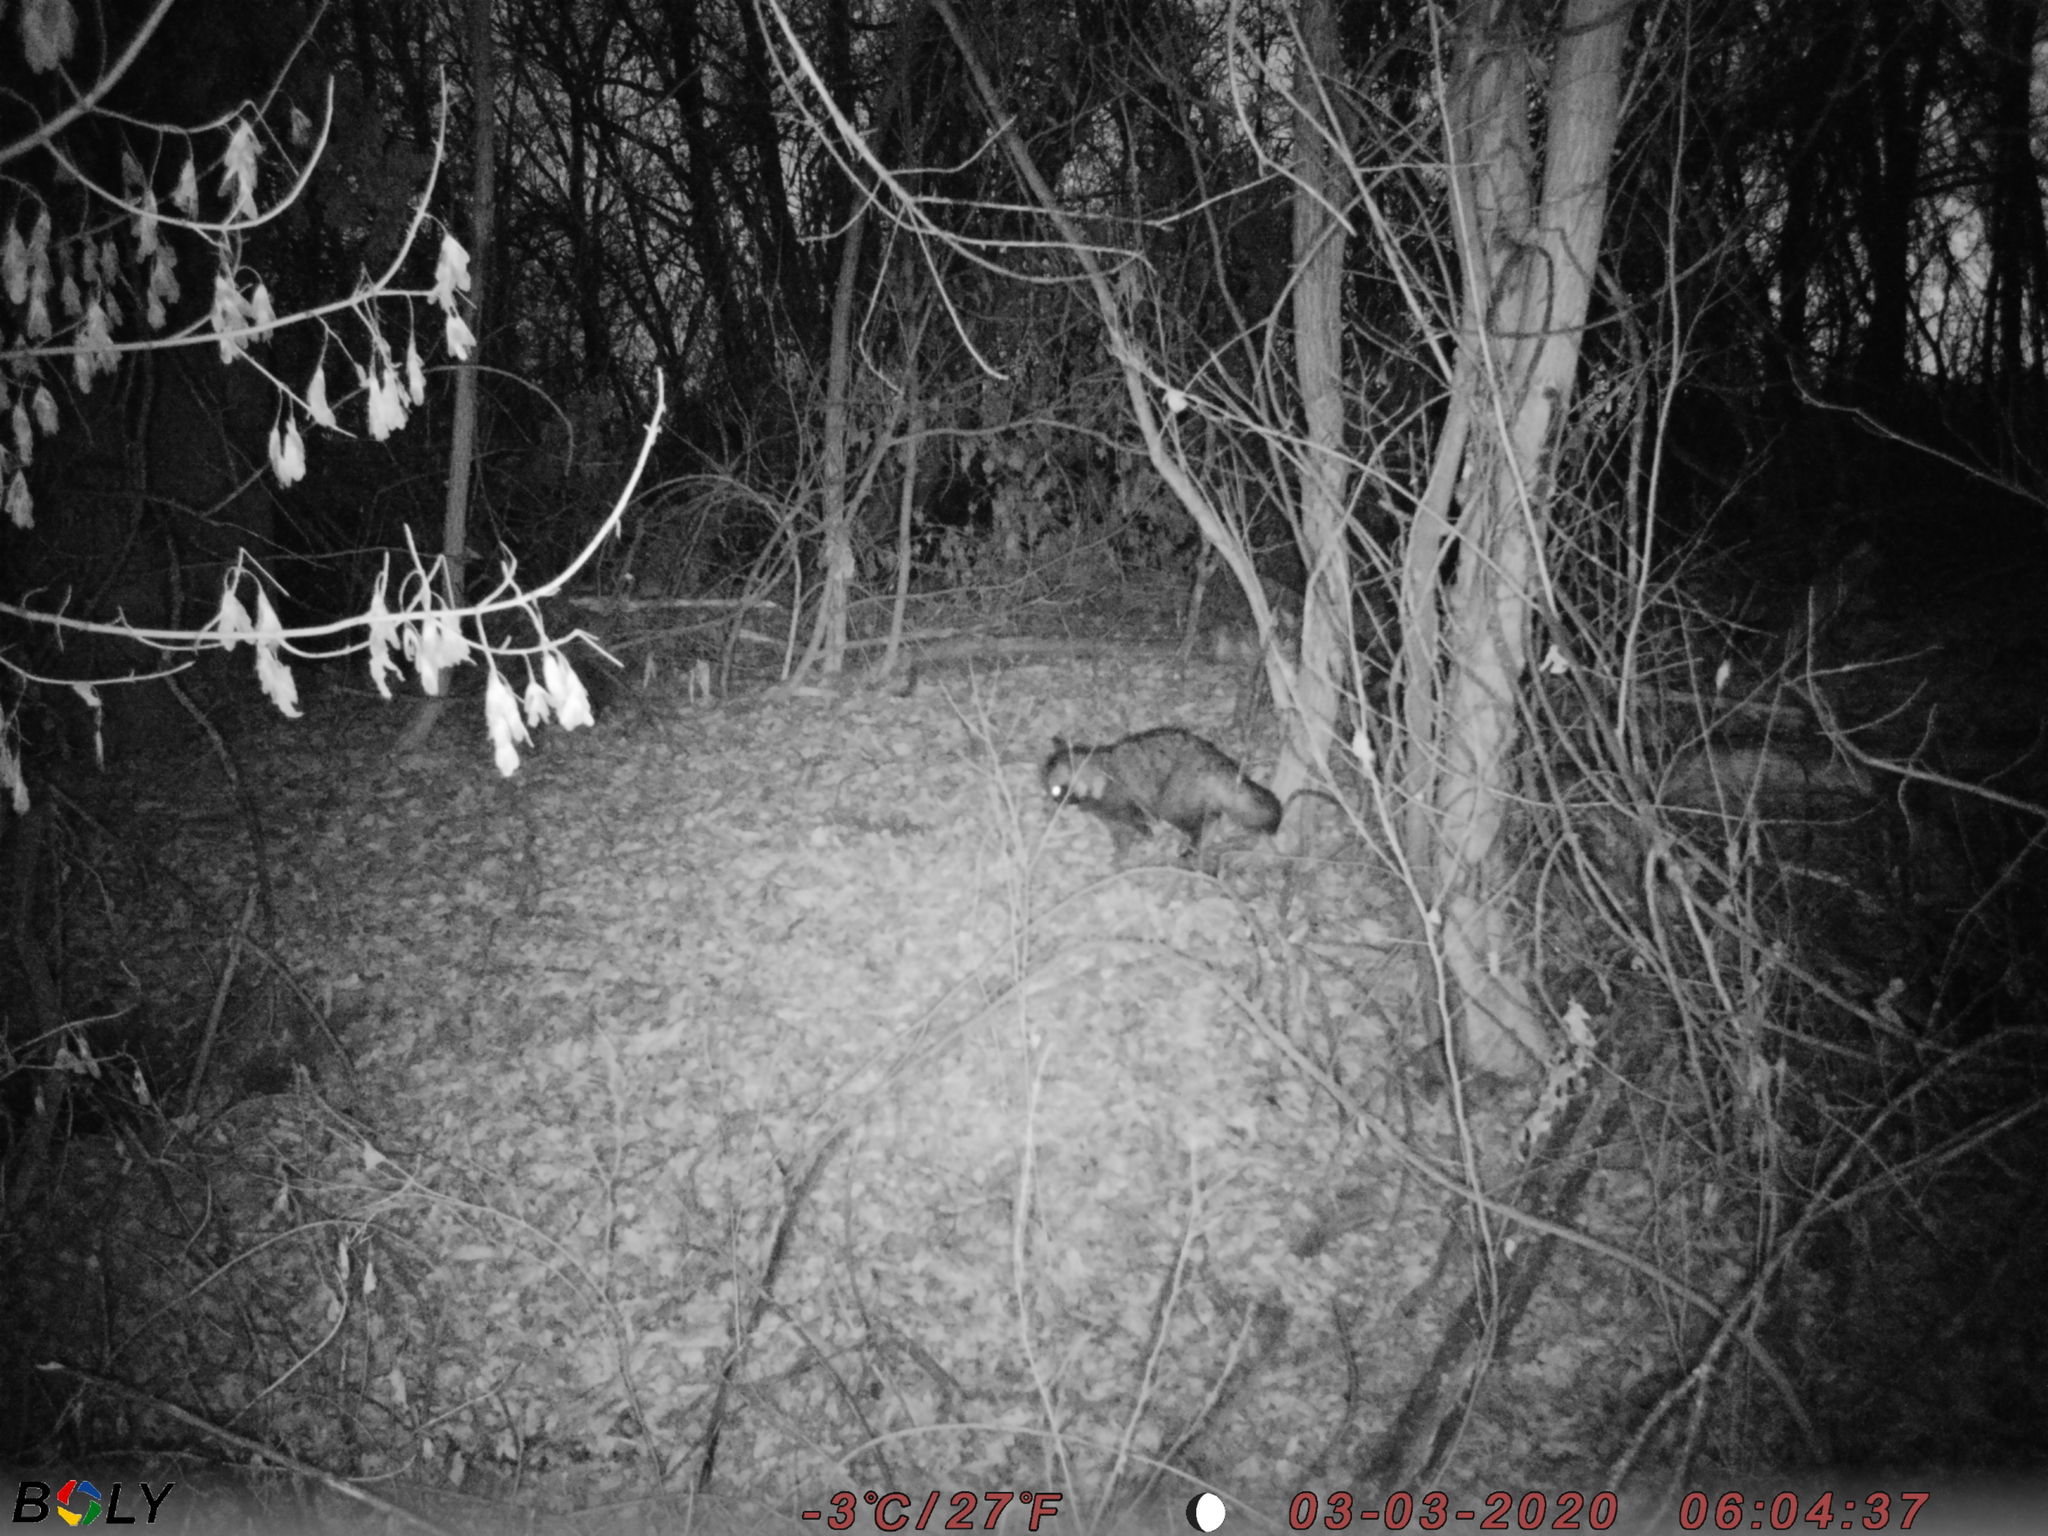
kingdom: Animalia
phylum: Chordata
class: Mammalia
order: Carnivora
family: Canidae
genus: Nyctereutes
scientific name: Nyctereutes procyonoides
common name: Raccoon dog
